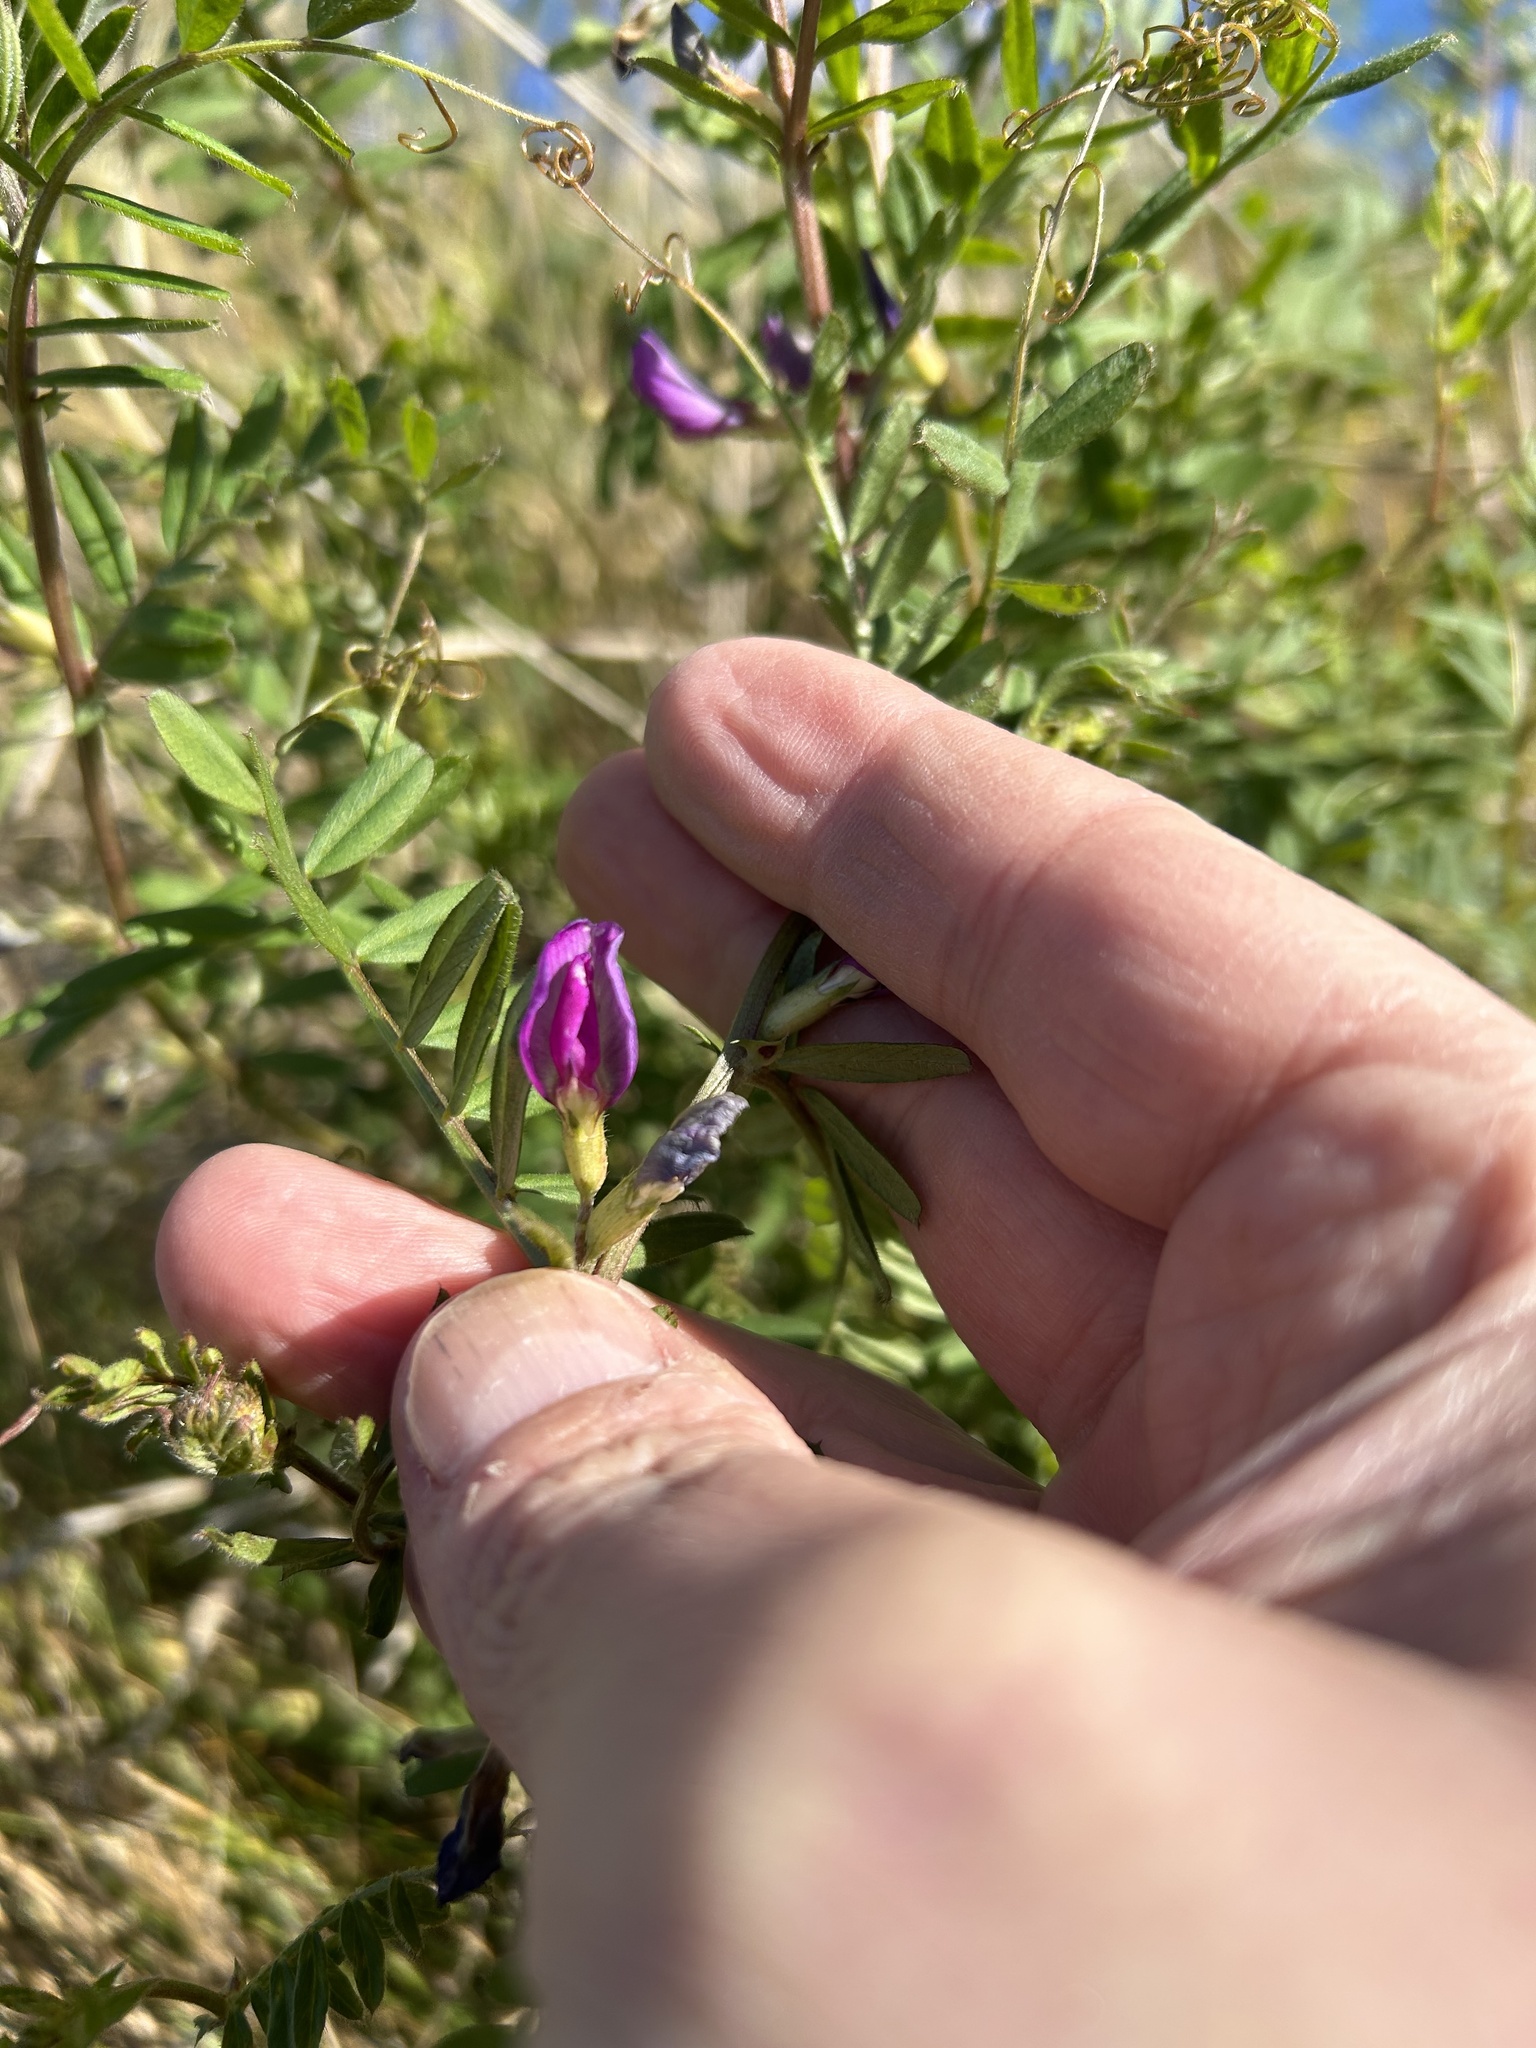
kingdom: Plantae
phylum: Tracheophyta
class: Magnoliopsida
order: Fabales
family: Fabaceae
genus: Vicia
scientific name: Vicia sativa
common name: Garden vetch
